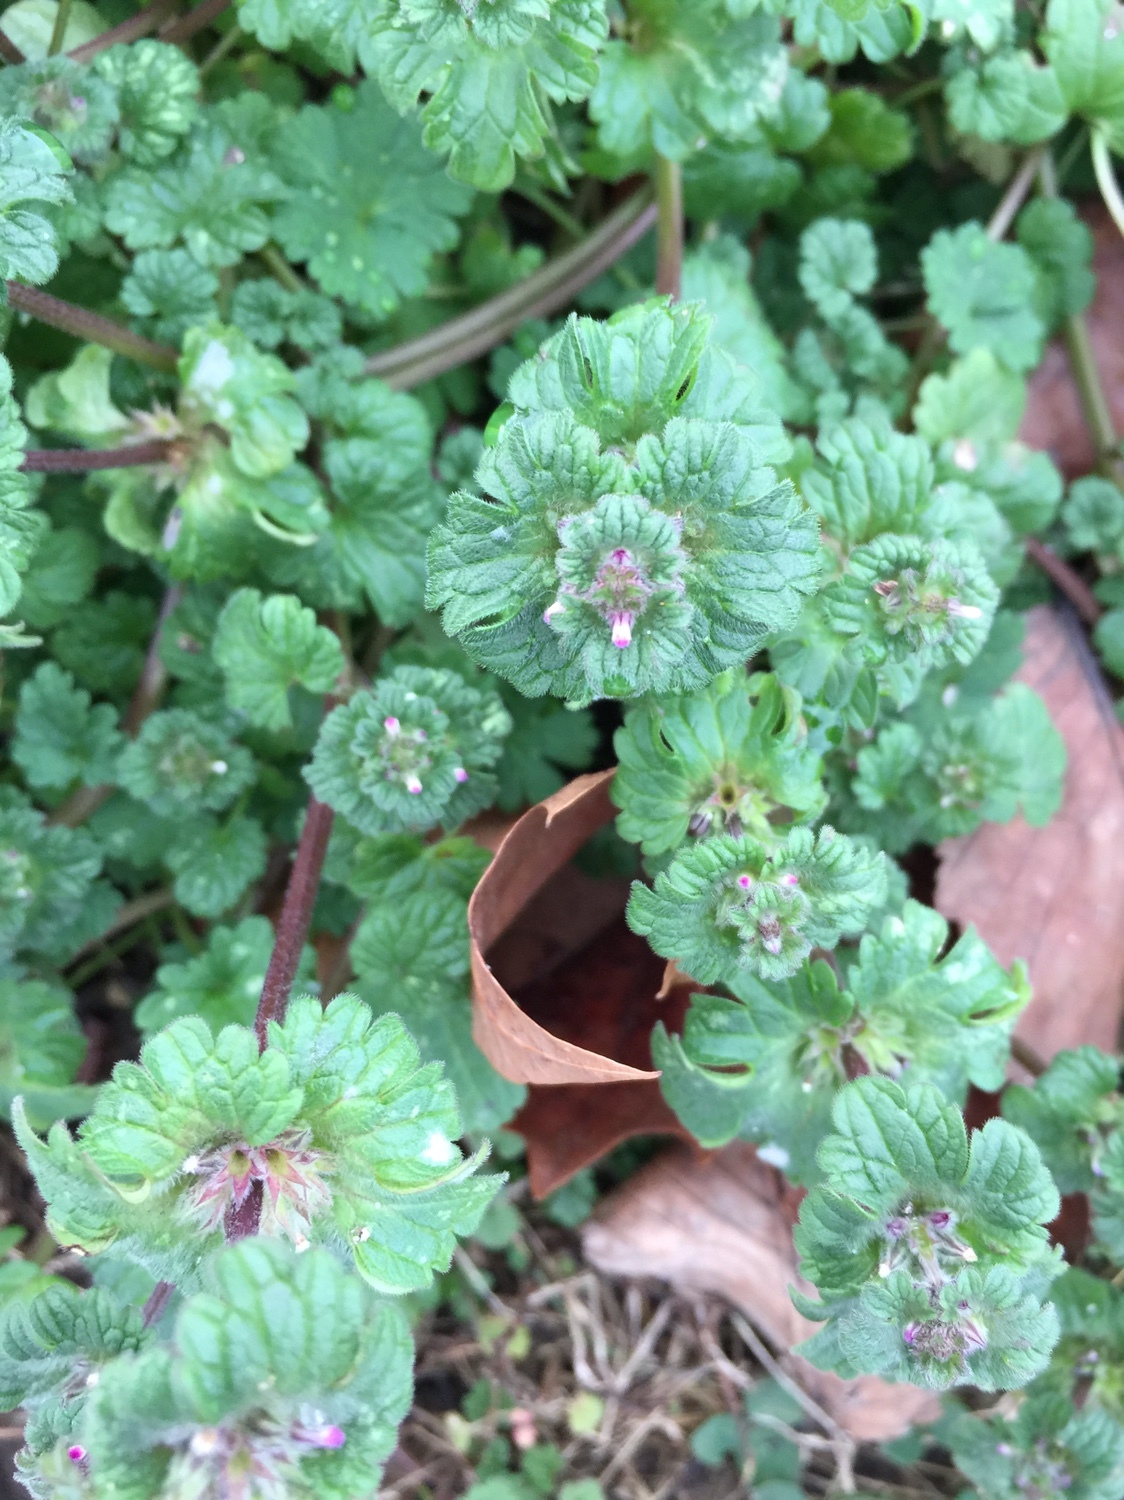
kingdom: Plantae
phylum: Tracheophyta
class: Magnoliopsida
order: Lamiales
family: Lamiaceae
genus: Lamium
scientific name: Lamium amplexicaule
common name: Henbit dead-nettle
